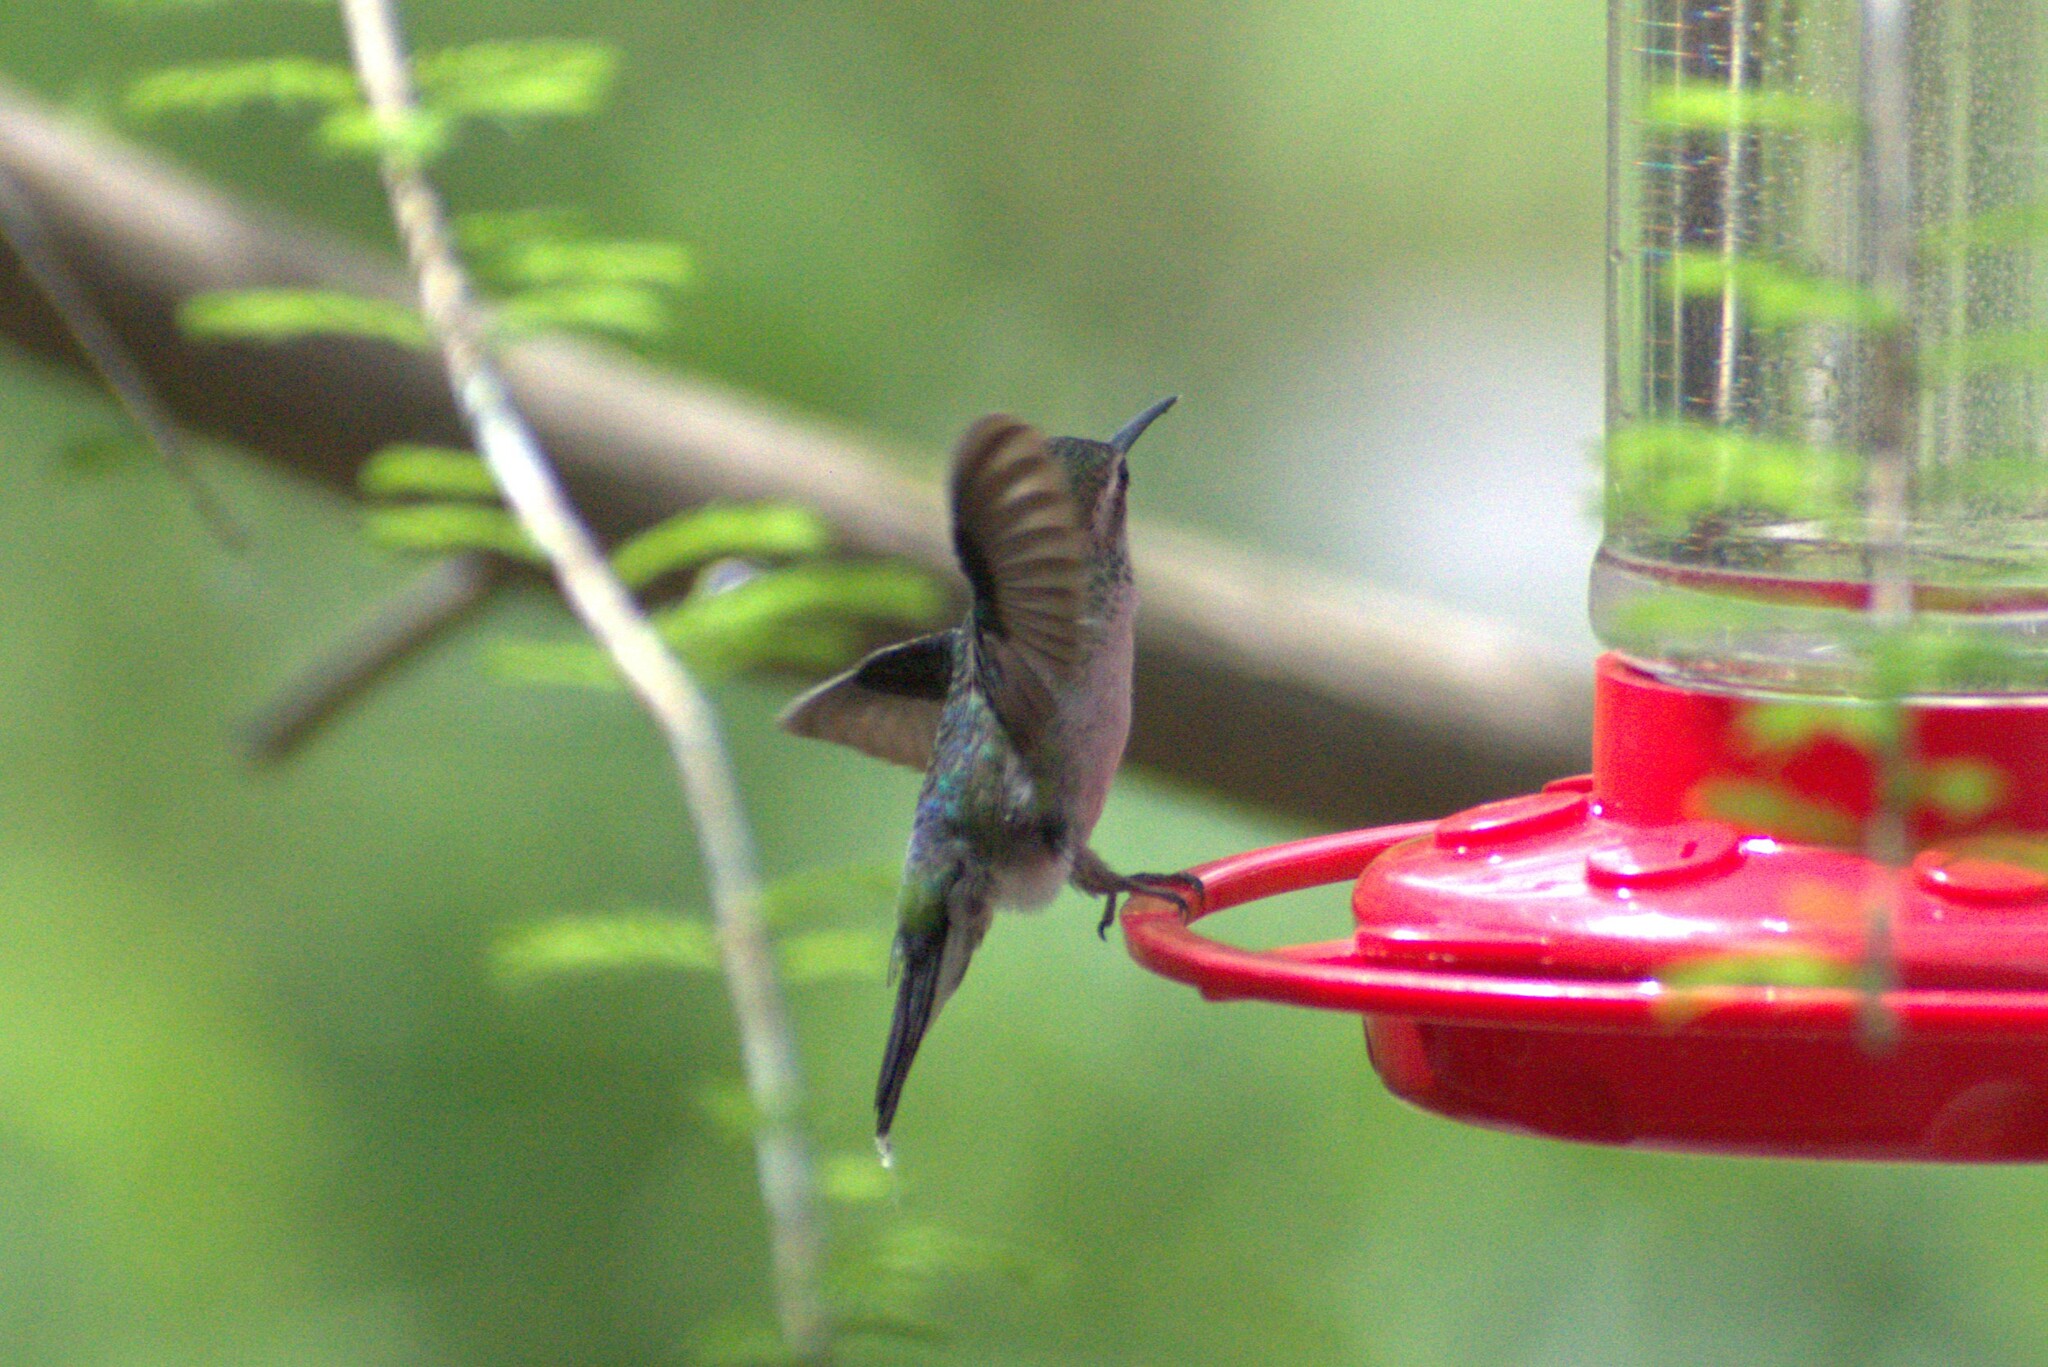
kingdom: Animalia
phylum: Chordata
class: Aves
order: Apodiformes
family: Trochilidae
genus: Cynanthus
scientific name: Cynanthus latirostris
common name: Broad-billed hummingbird
